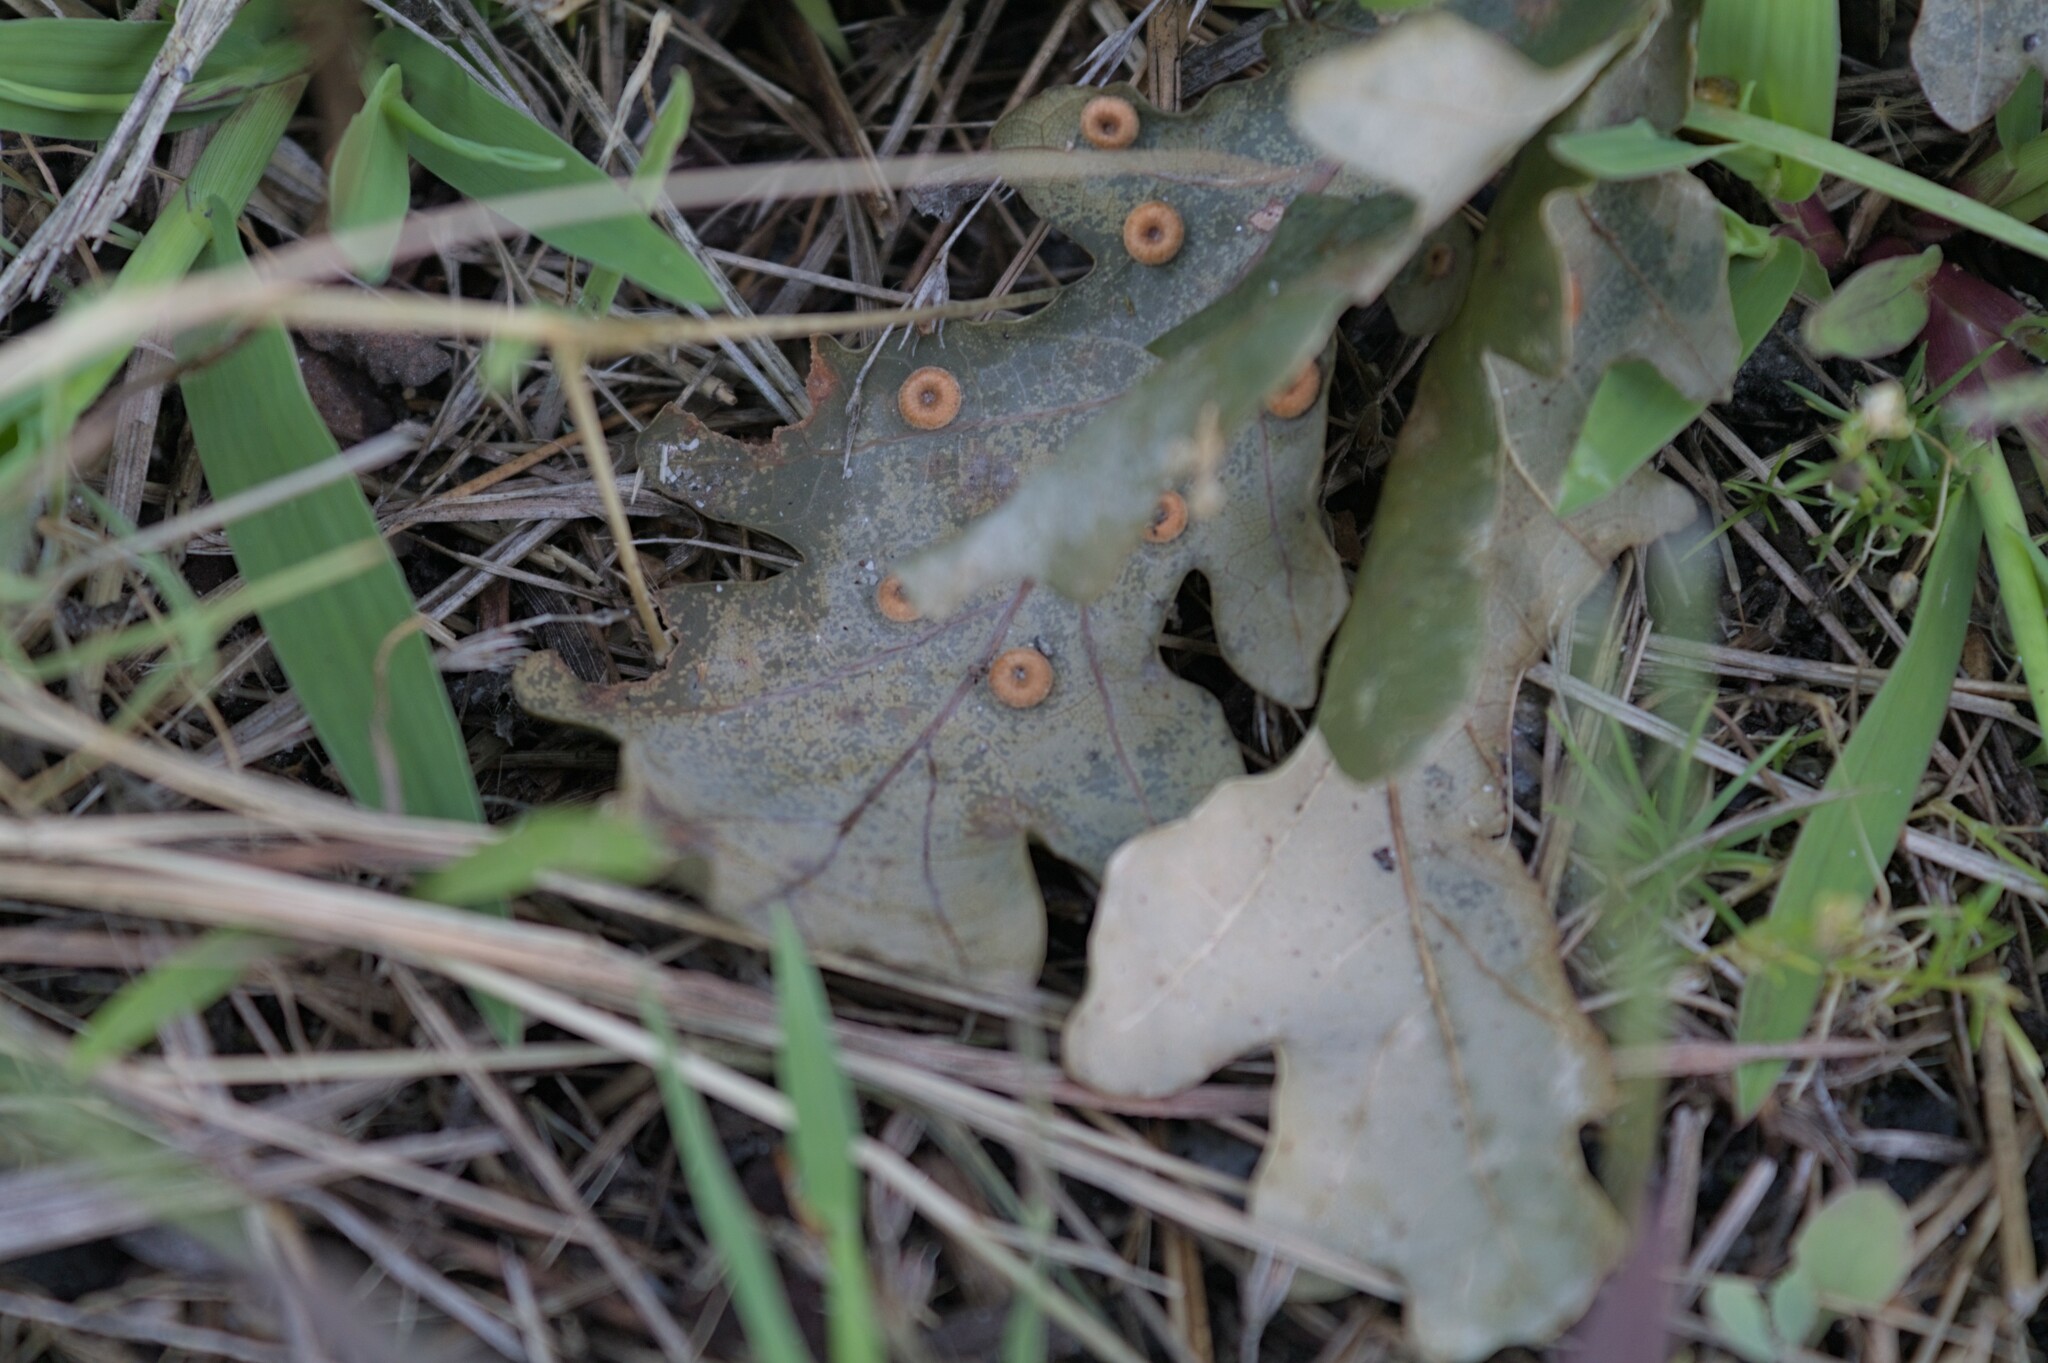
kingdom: Animalia
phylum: Arthropoda
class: Insecta
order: Hymenoptera
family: Cynipidae
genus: Neuroterus
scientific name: Neuroterus numismalis
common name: Silk-button spangle gall
